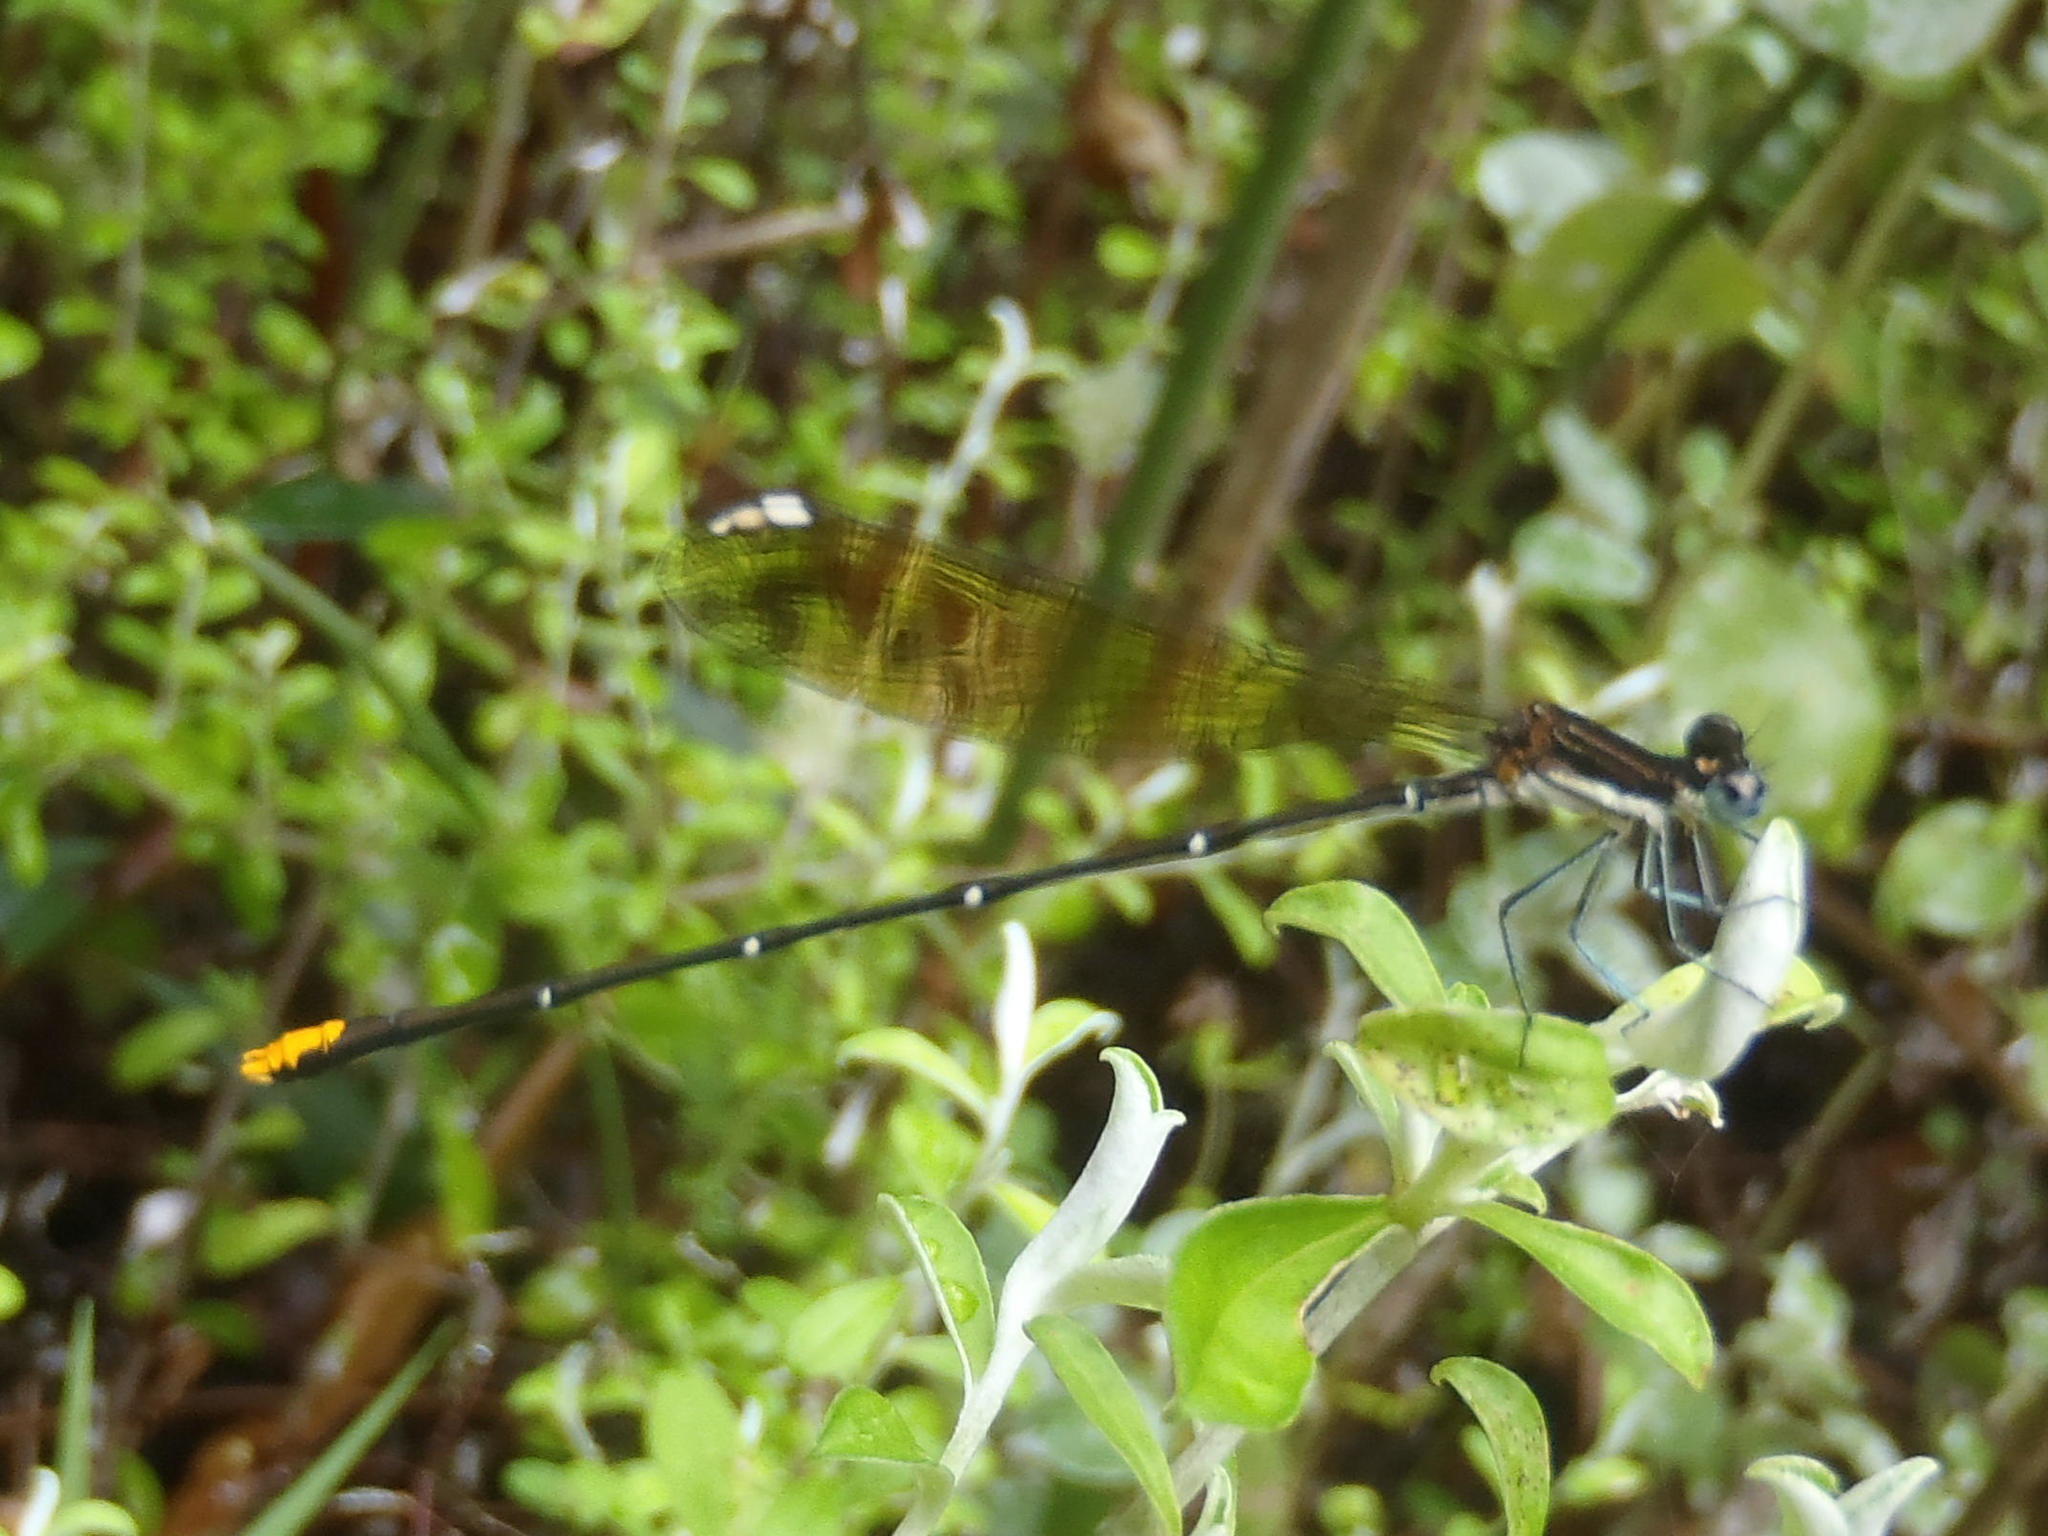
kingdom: Animalia
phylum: Arthropoda
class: Insecta
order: Odonata
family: Platycnemididae
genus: Allocnemis
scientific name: Allocnemis leucosticta
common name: Goldtail
